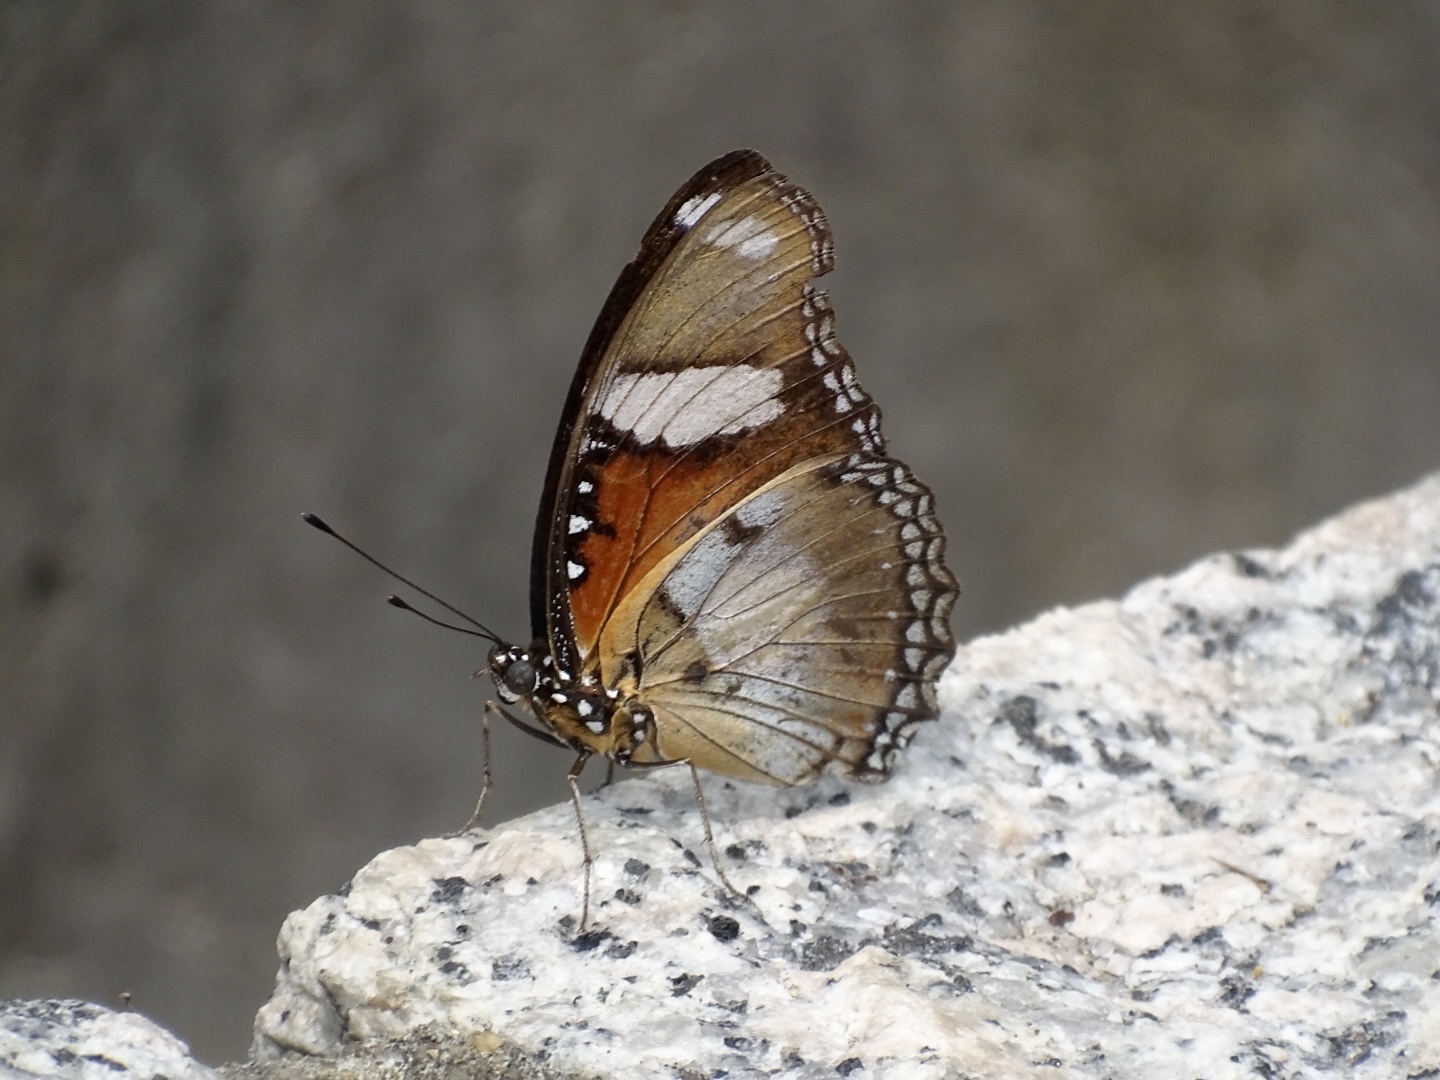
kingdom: Animalia
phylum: Arthropoda
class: Insecta
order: Lepidoptera
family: Nymphalidae
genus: Hypolimnas
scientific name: Hypolimnas misippus
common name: False plain tiger
